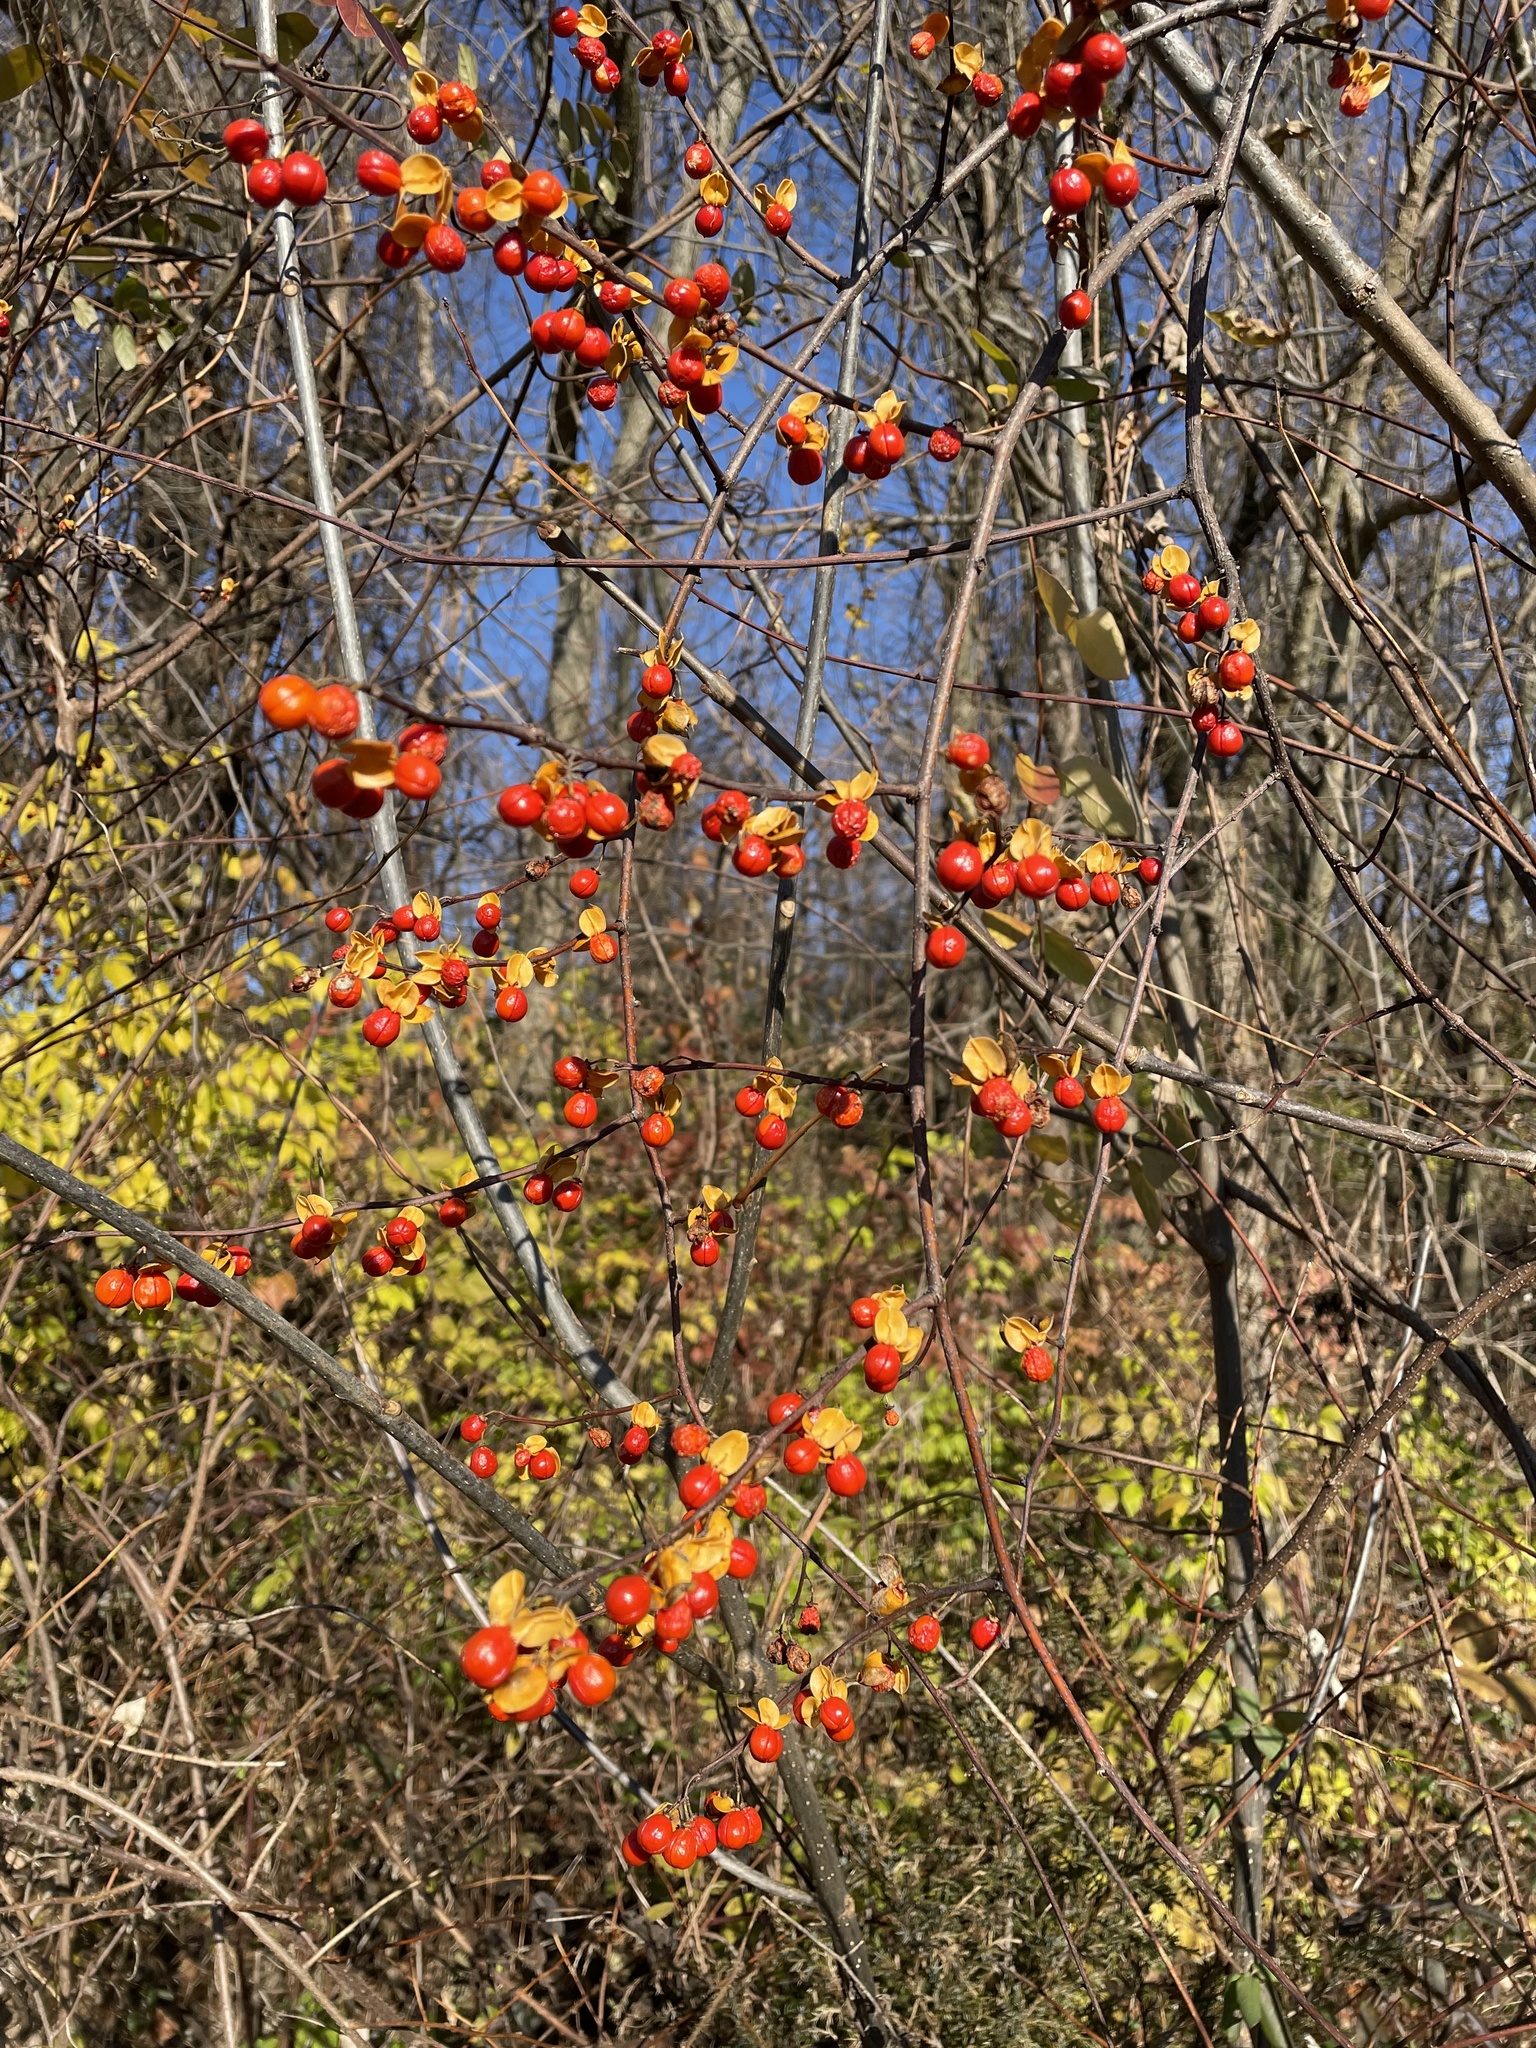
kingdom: Plantae
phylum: Tracheophyta
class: Magnoliopsida
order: Celastrales
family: Celastraceae
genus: Celastrus
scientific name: Celastrus orbiculatus
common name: Oriental bittersweet
